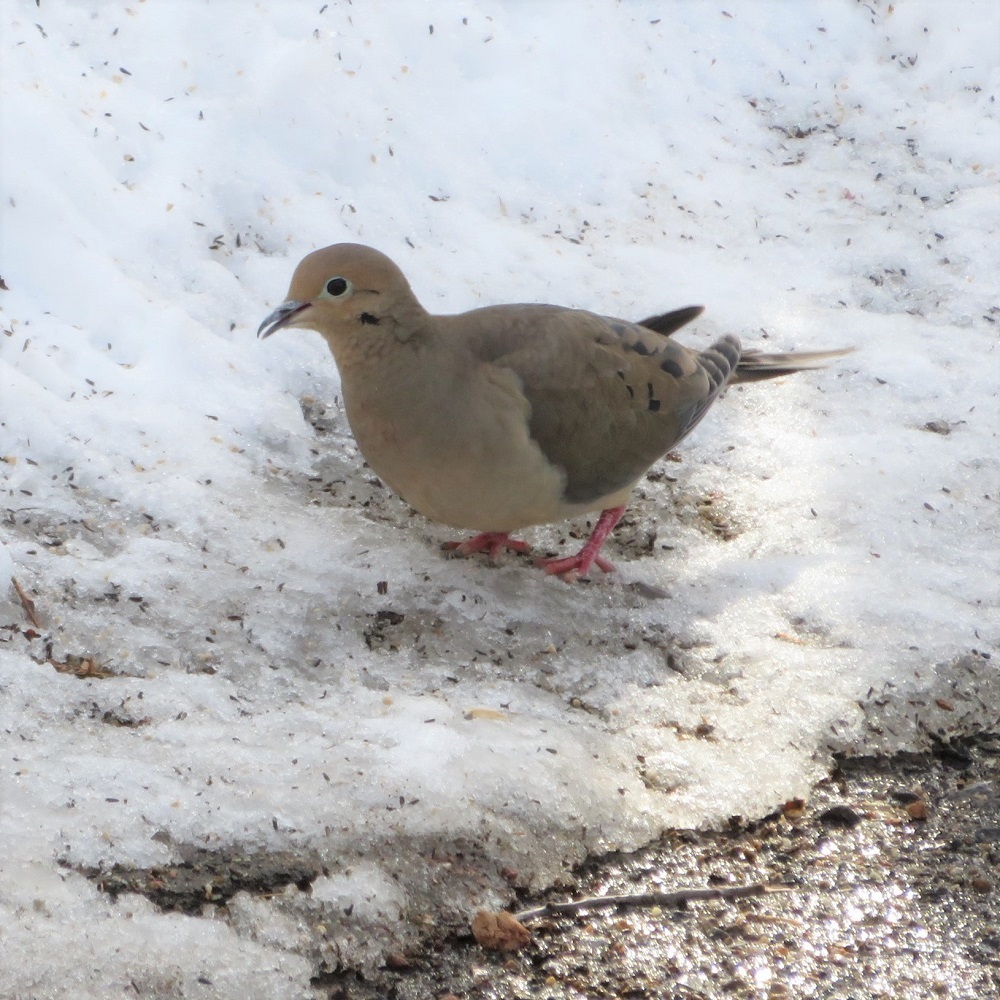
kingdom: Animalia
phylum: Chordata
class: Aves
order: Columbiformes
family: Columbidae
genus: Zenaida
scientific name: Zenaida macroura
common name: Mourning dove
